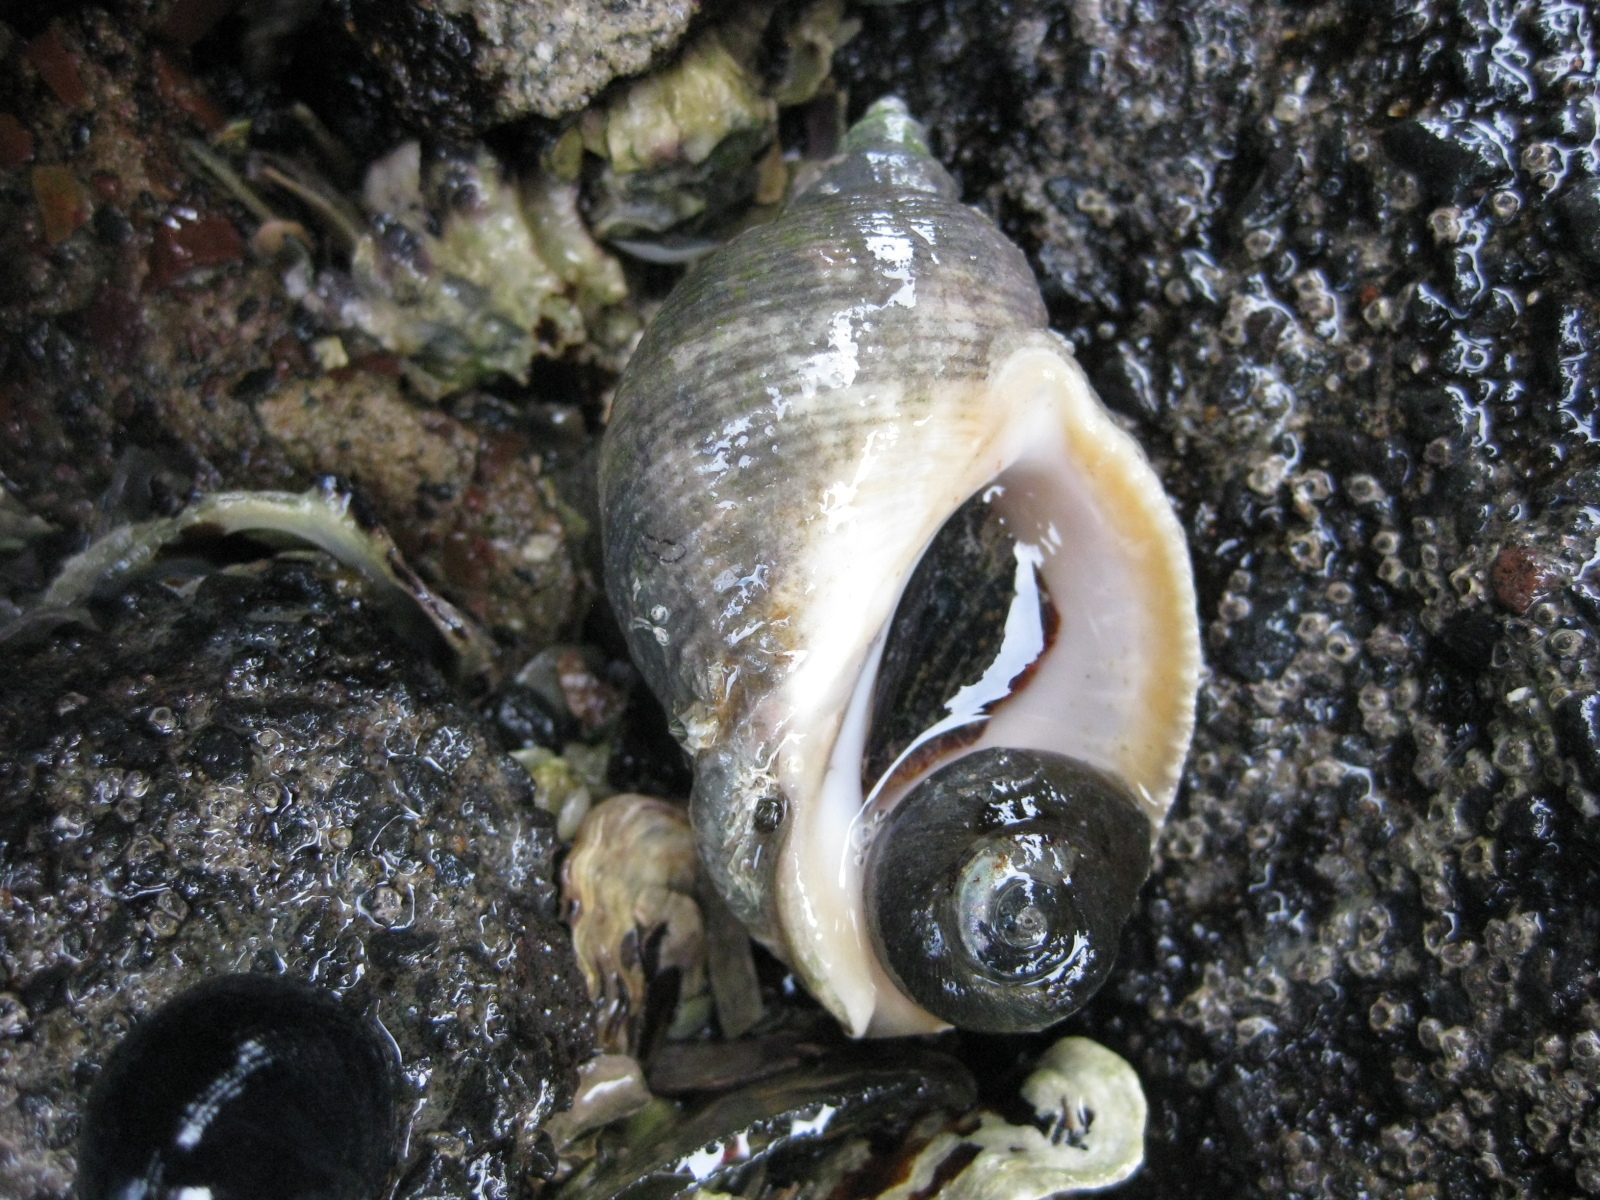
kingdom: Animalia
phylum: Mollusca
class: Gastropoda
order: Neogastropoda
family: Muricidae
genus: Dicathais
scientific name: Dicathais orbita
